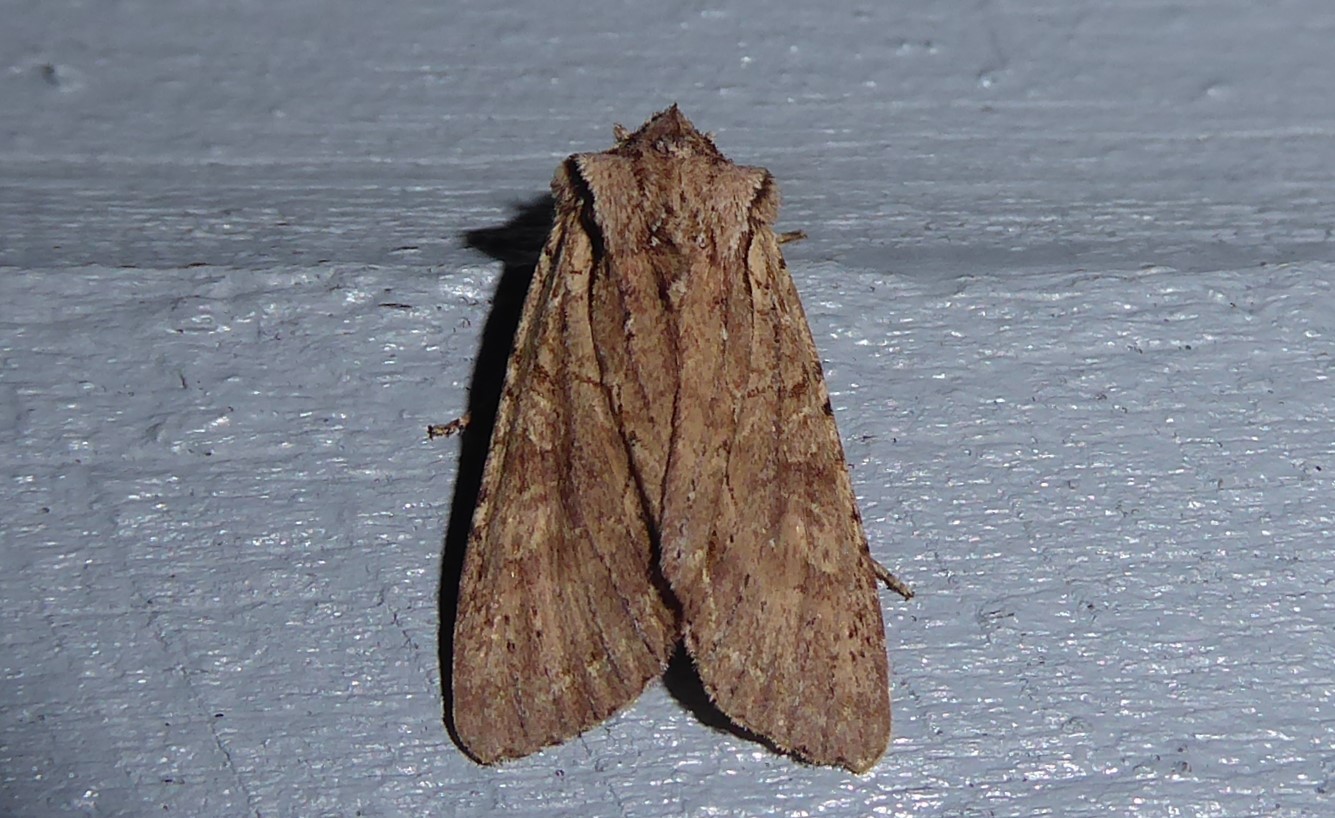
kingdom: Animalia
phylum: Arthropoda
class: Insecta
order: Lepidoptera
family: Noctuidae
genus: Ichneutica
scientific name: Ichneutica
